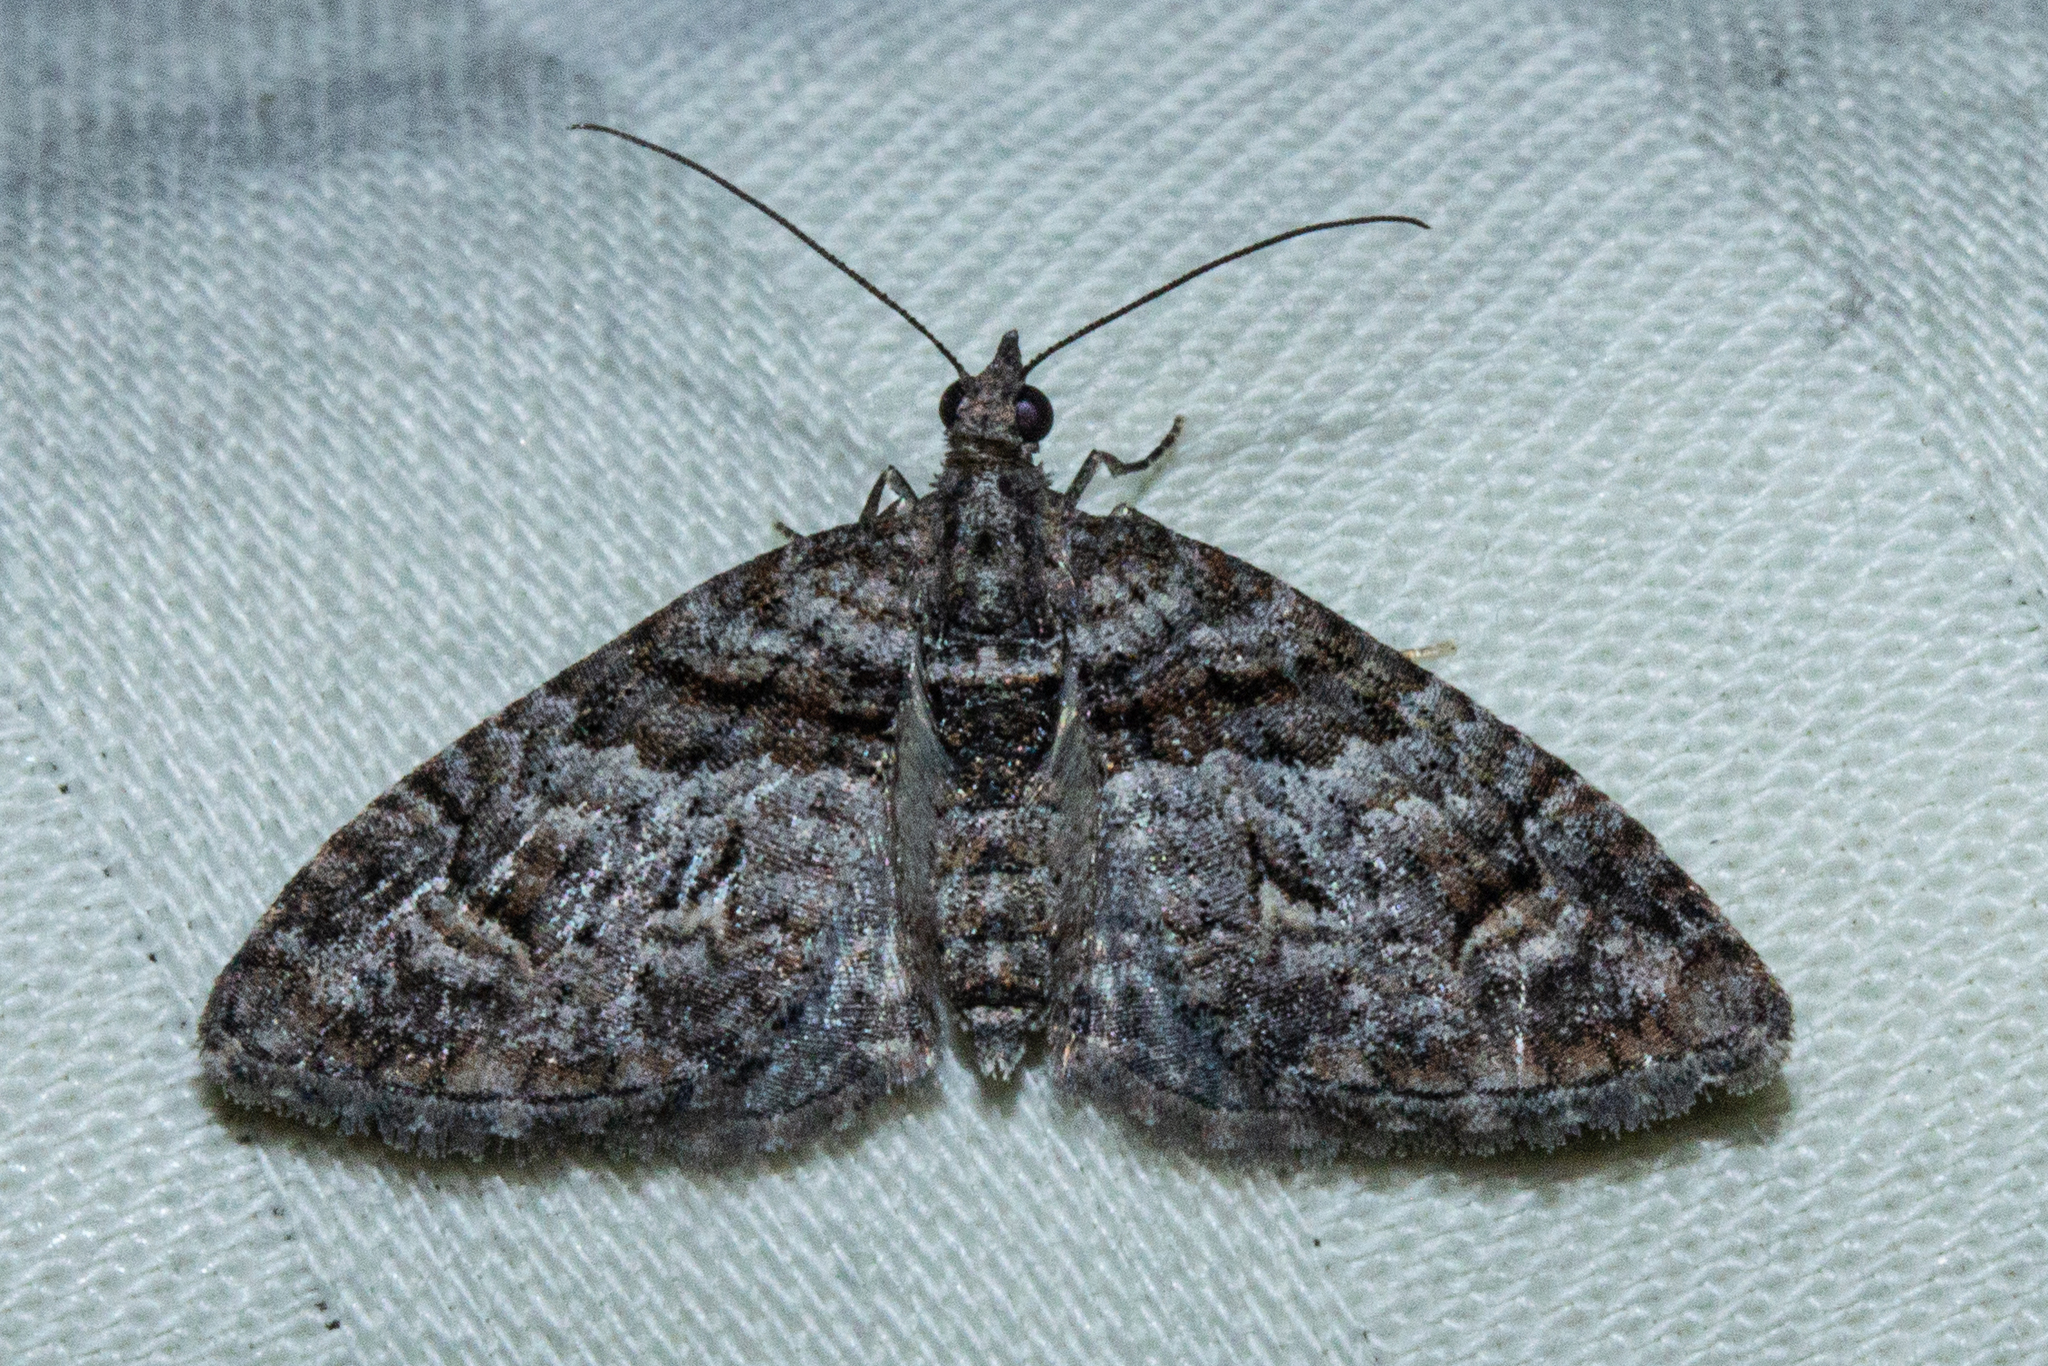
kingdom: Animalia
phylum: Arthropoda
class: Insecta
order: Lepidoptera
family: Geometridae
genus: Phrissogonus
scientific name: Phrissogonus laticostata
